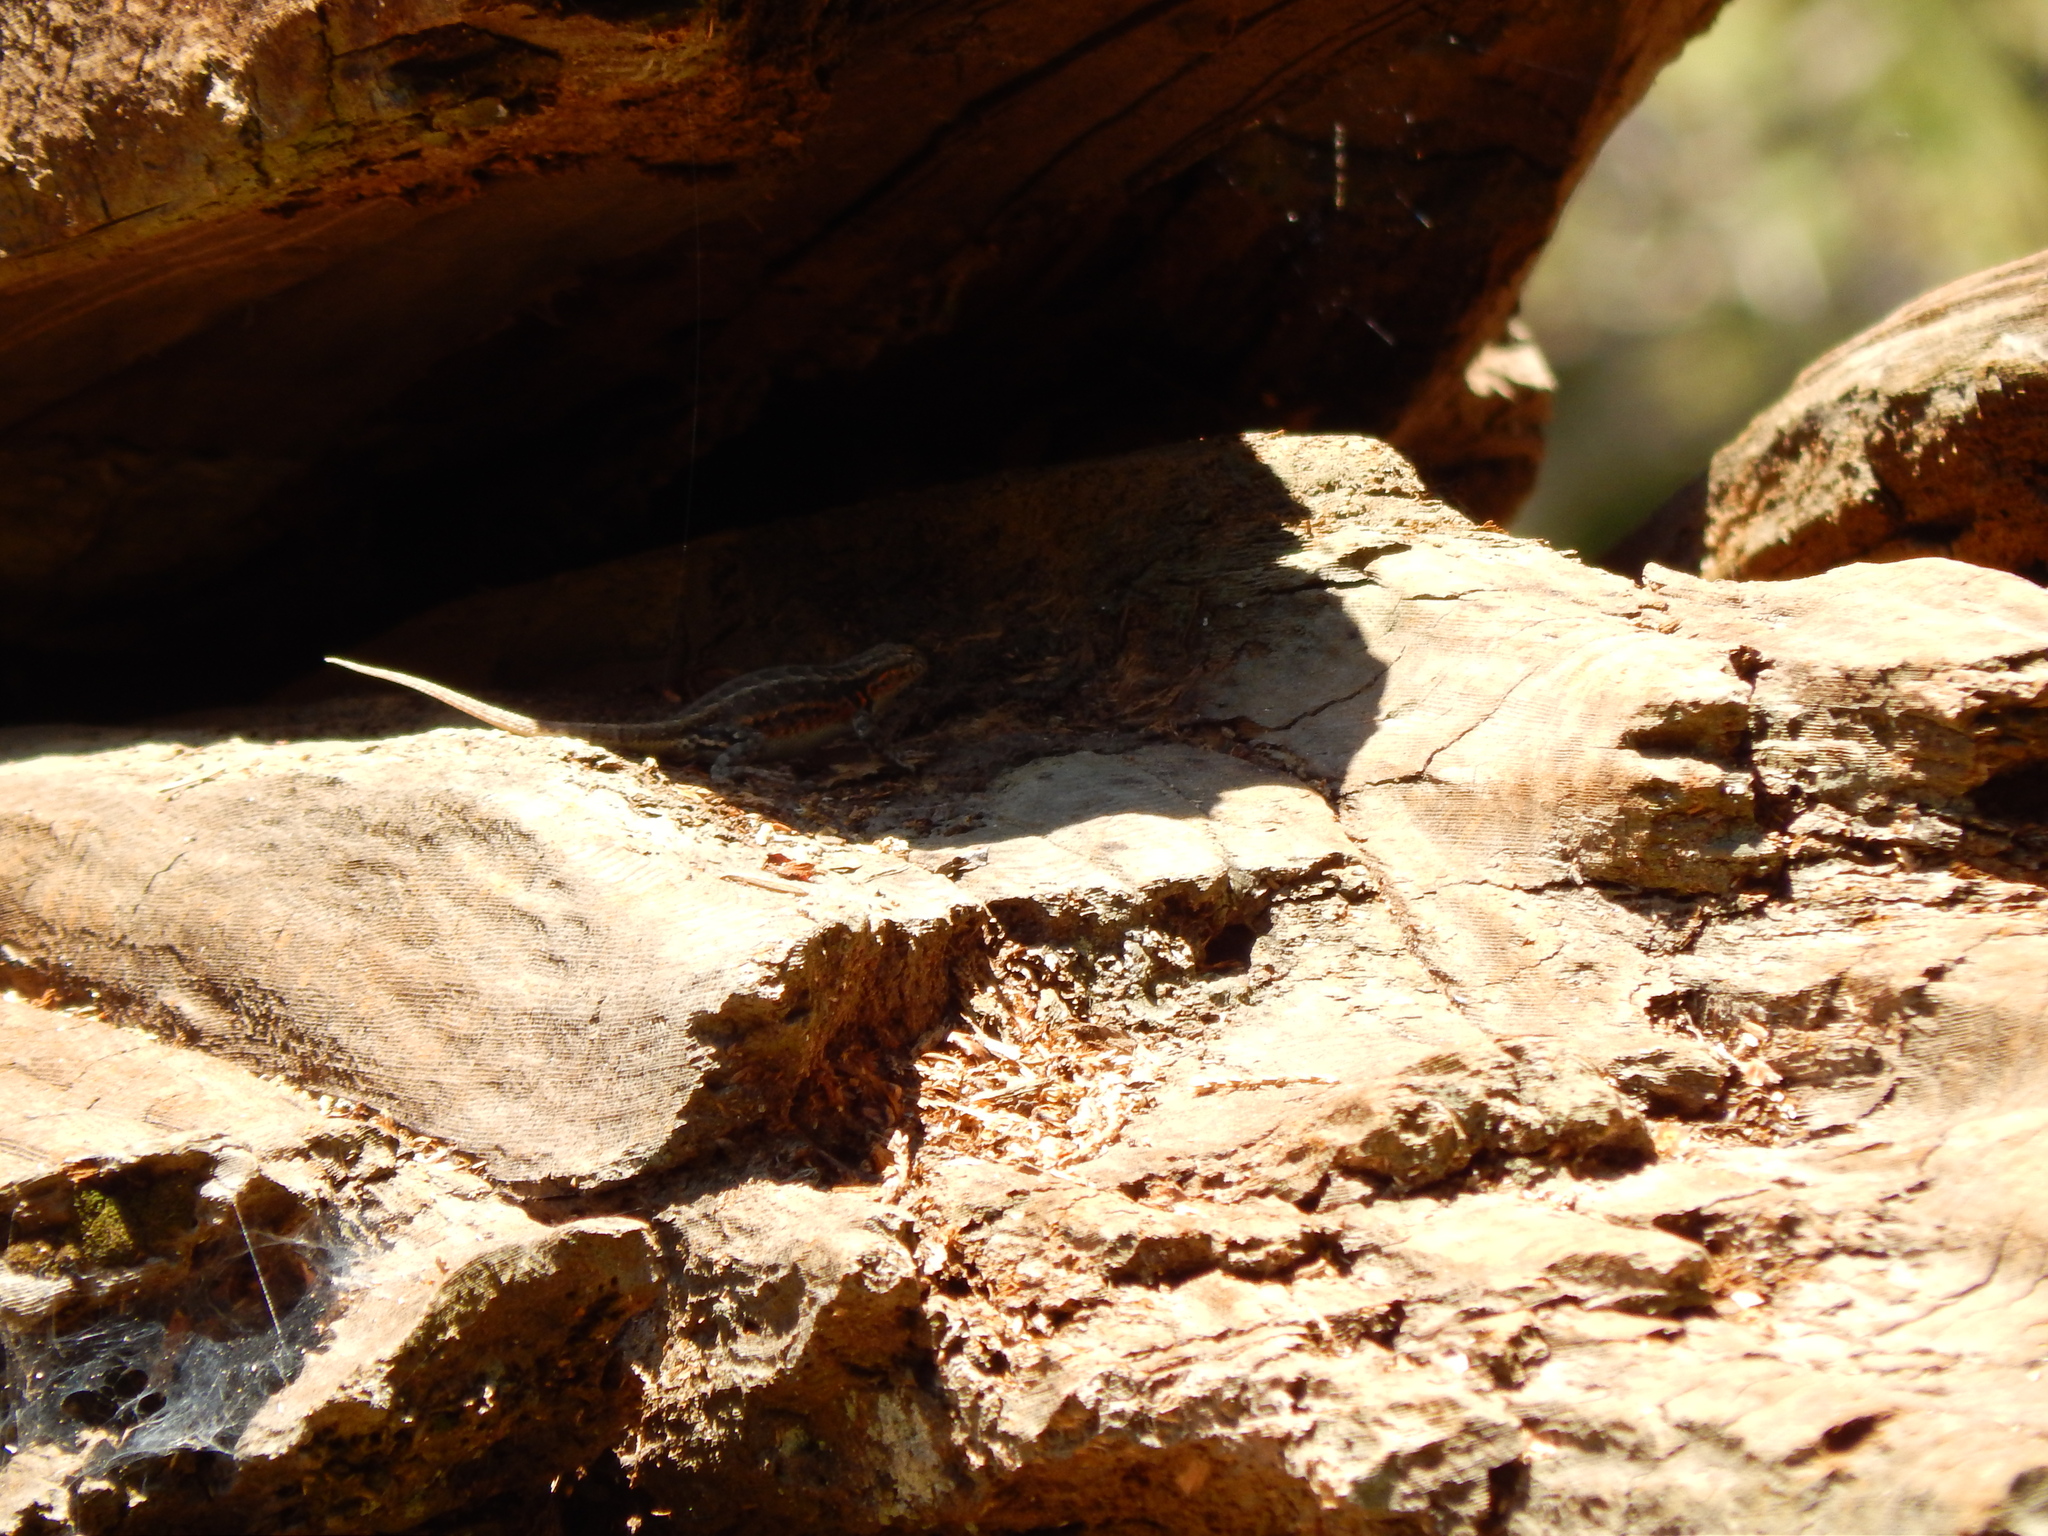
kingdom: Animalia
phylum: Chordata
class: Squamata
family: Phrynosomatidae
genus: Sceloporus
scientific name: Sceloporus graciosus
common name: Sagebrush lizard
